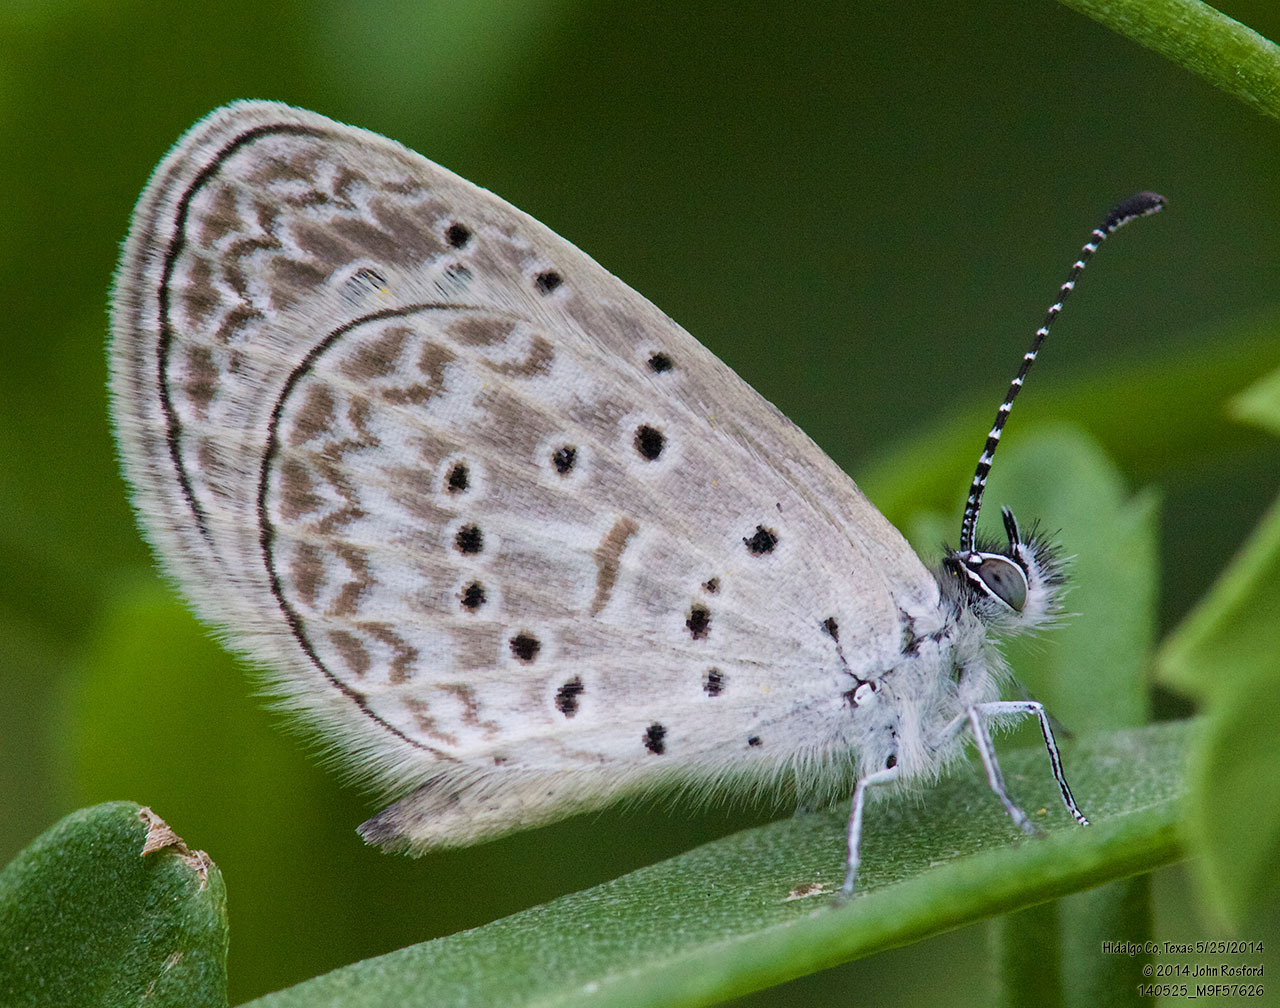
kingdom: Animalia
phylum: Arthropoda
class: Insecta
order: Lepidoptera
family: Lycaenidae
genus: Lycaena
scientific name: Lycaena cyna
